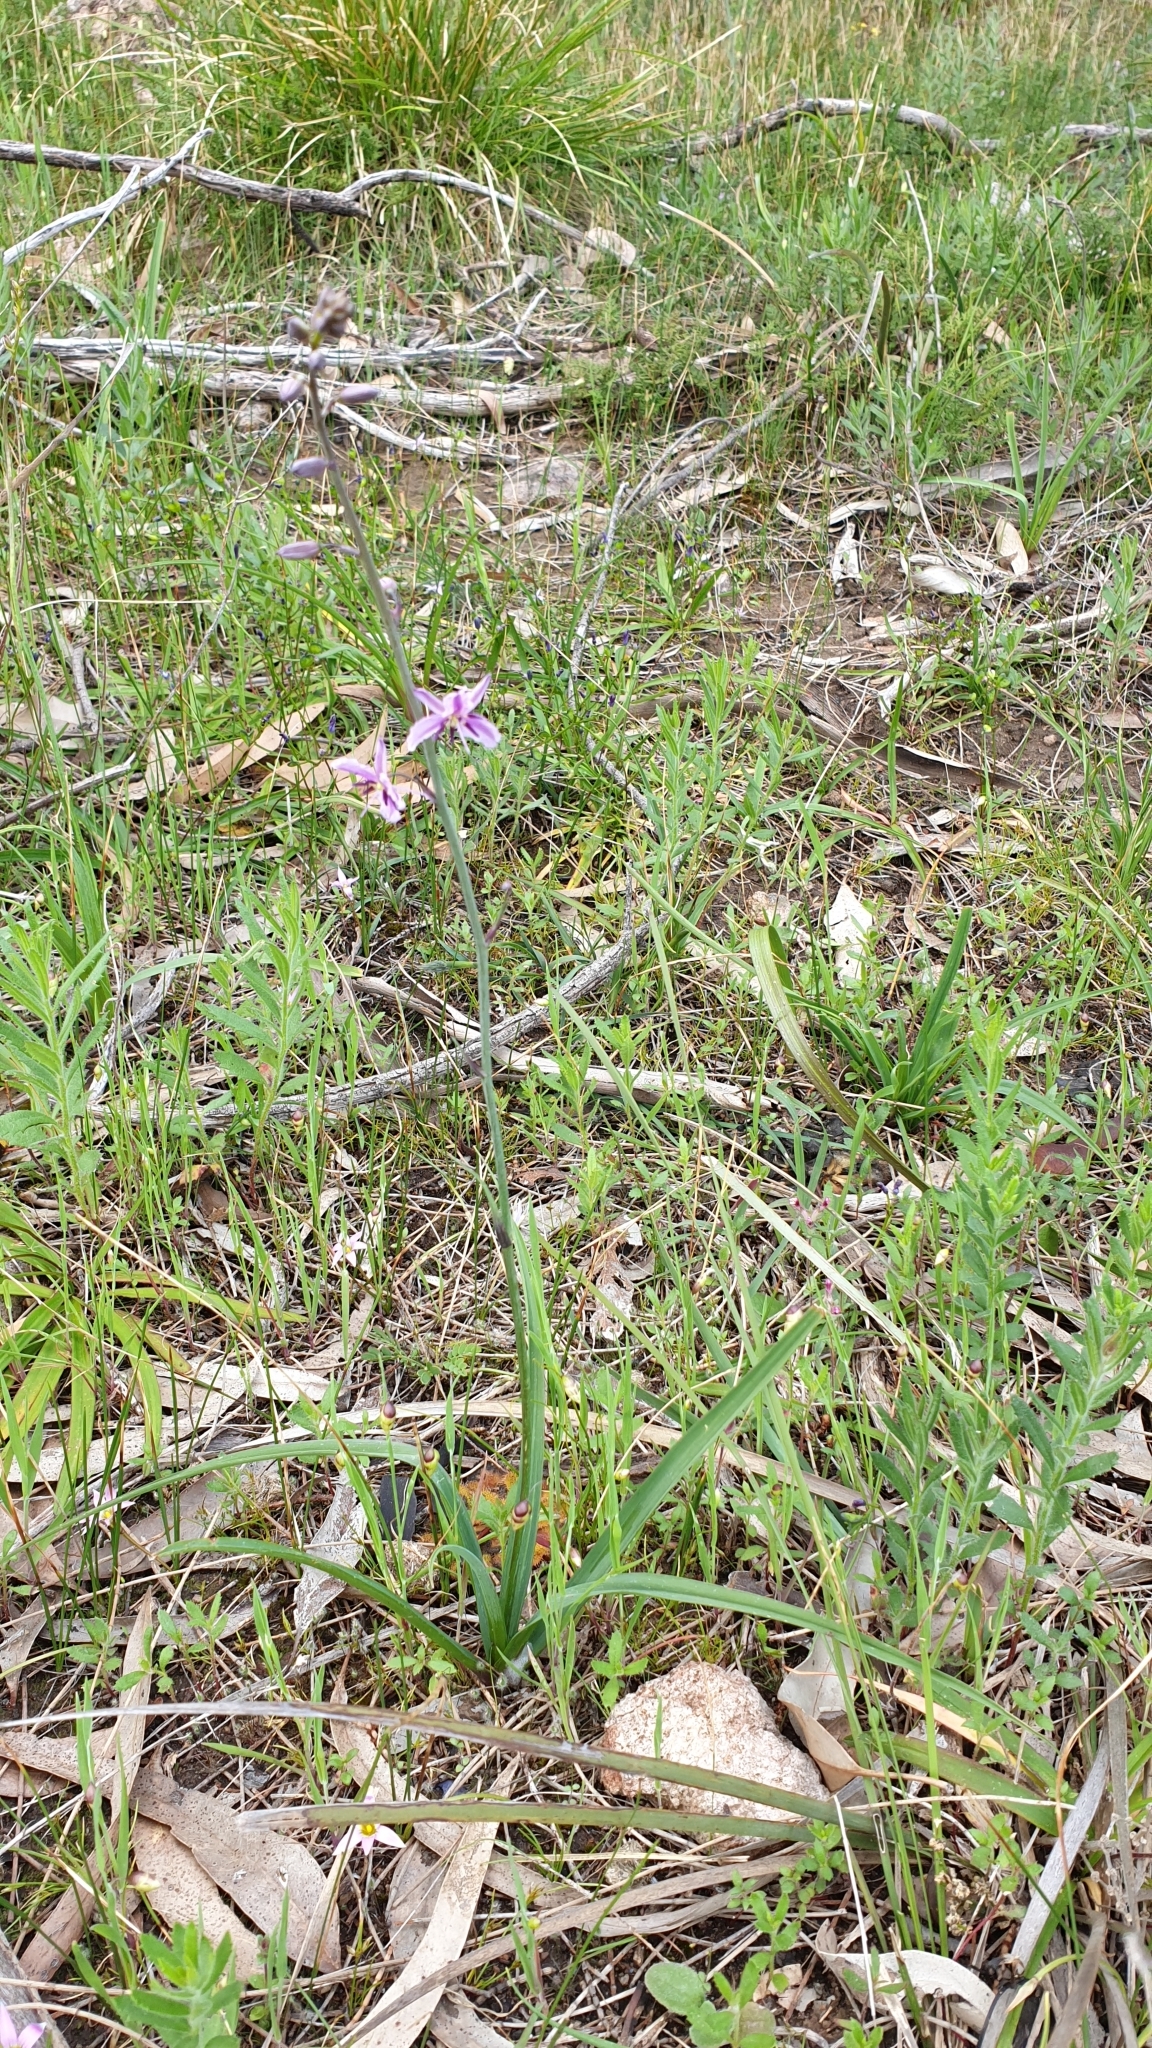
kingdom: Plantae
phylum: Tracheophyta
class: Liliopsida
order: Asparagales
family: Asparagaceae
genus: Arthropodium
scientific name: Arthropodium strictum
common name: Chocolate-lily
